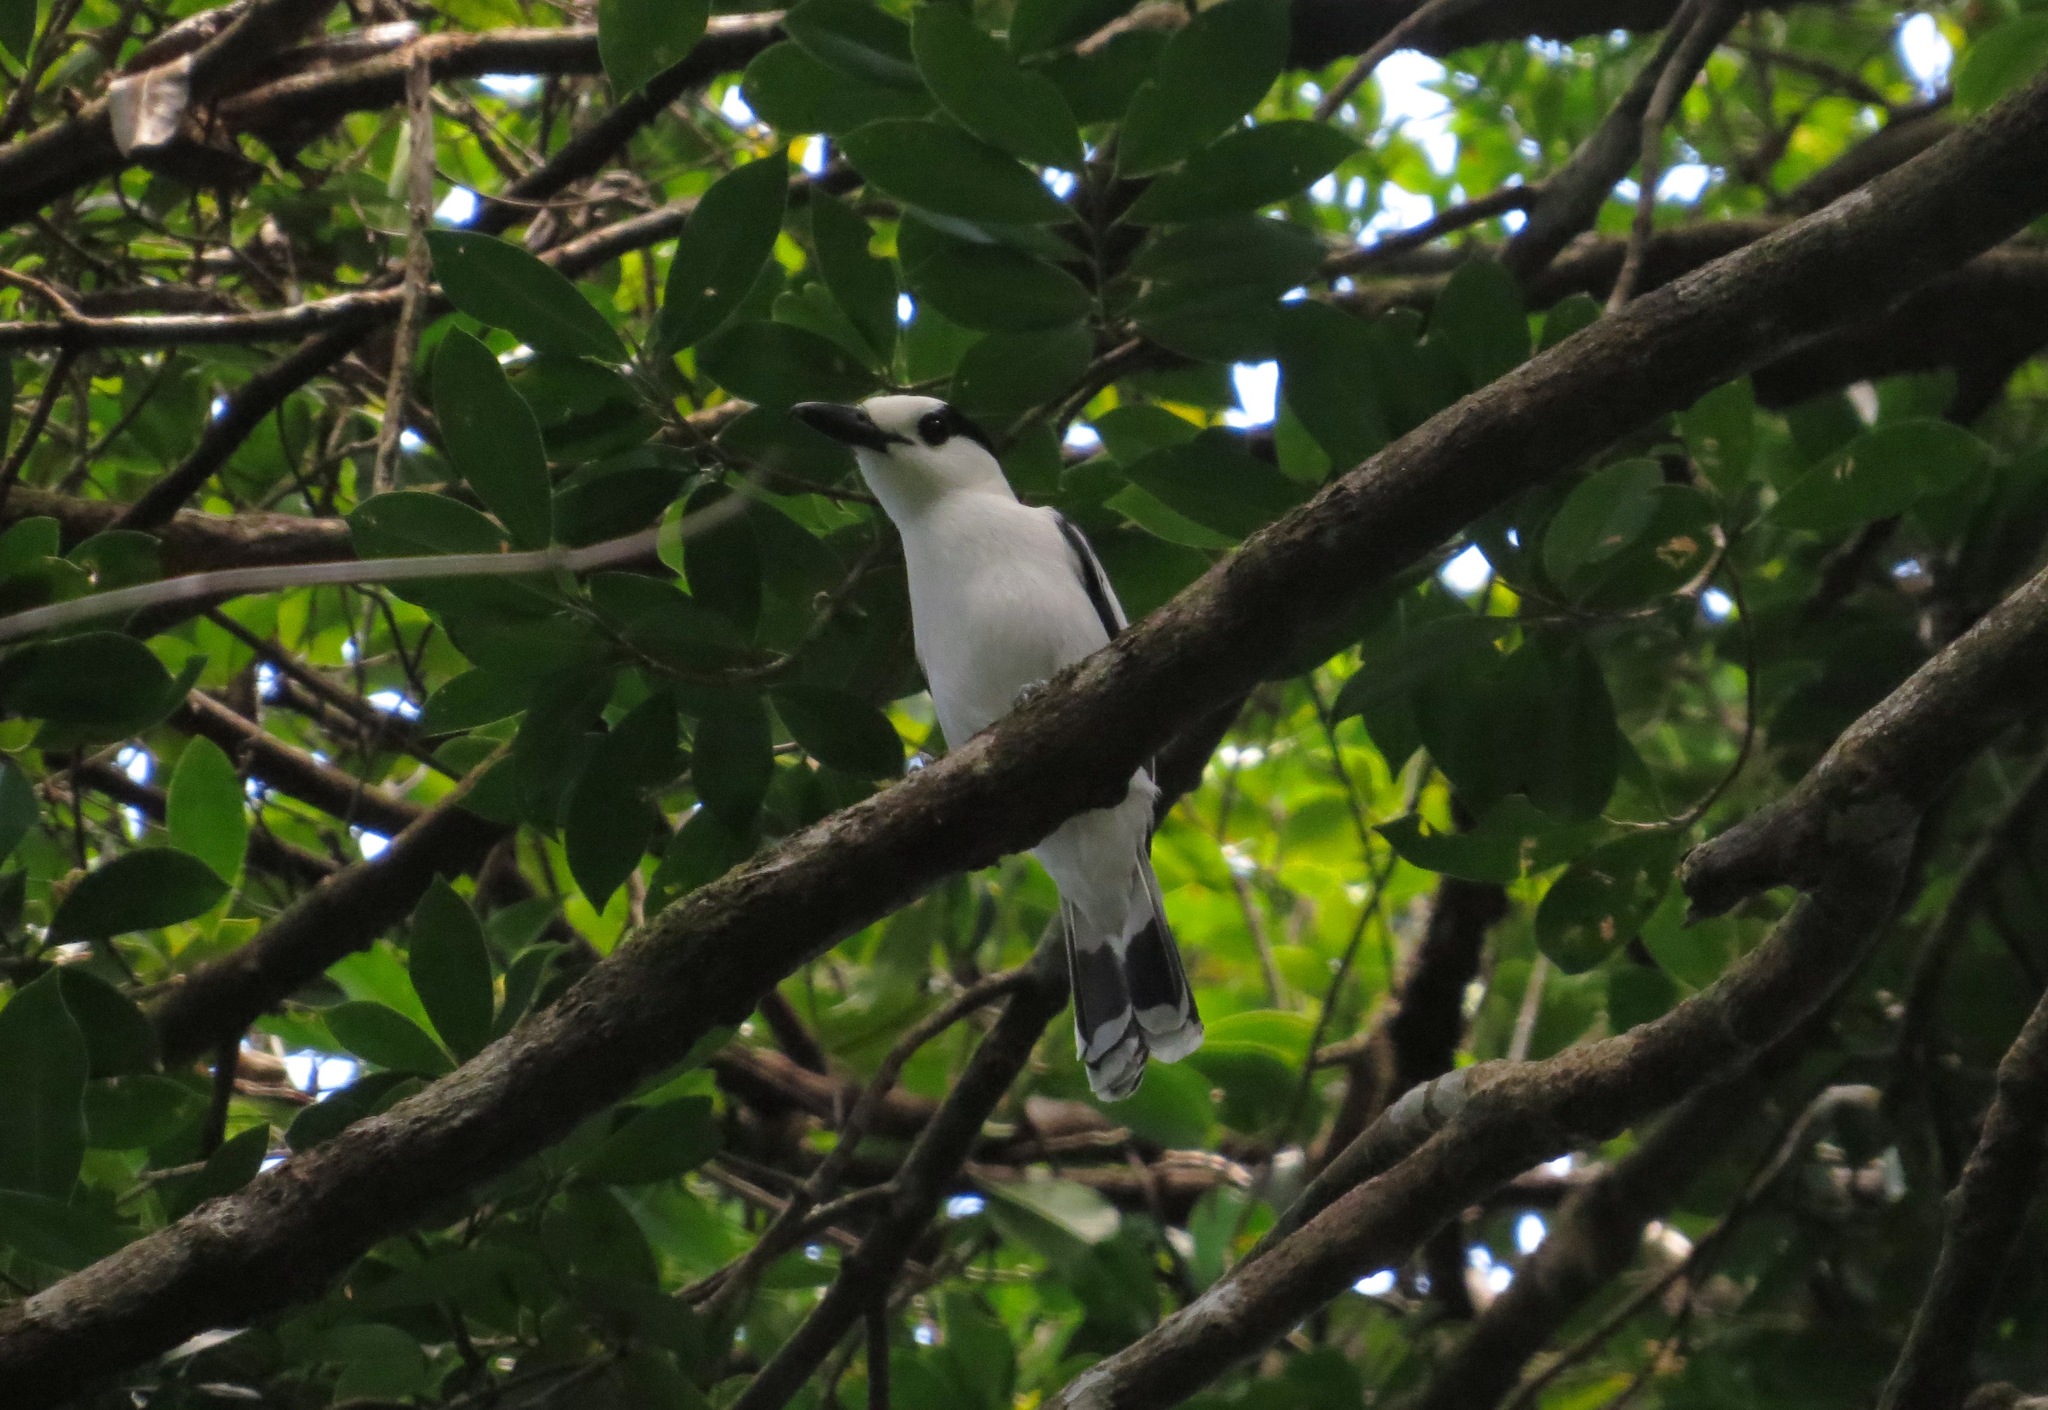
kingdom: Animalia
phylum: Chordata
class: Aves
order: Passeriformes
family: Vangidae
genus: Vanga
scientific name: Vanga curvirostris
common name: Hook-billed vanga
